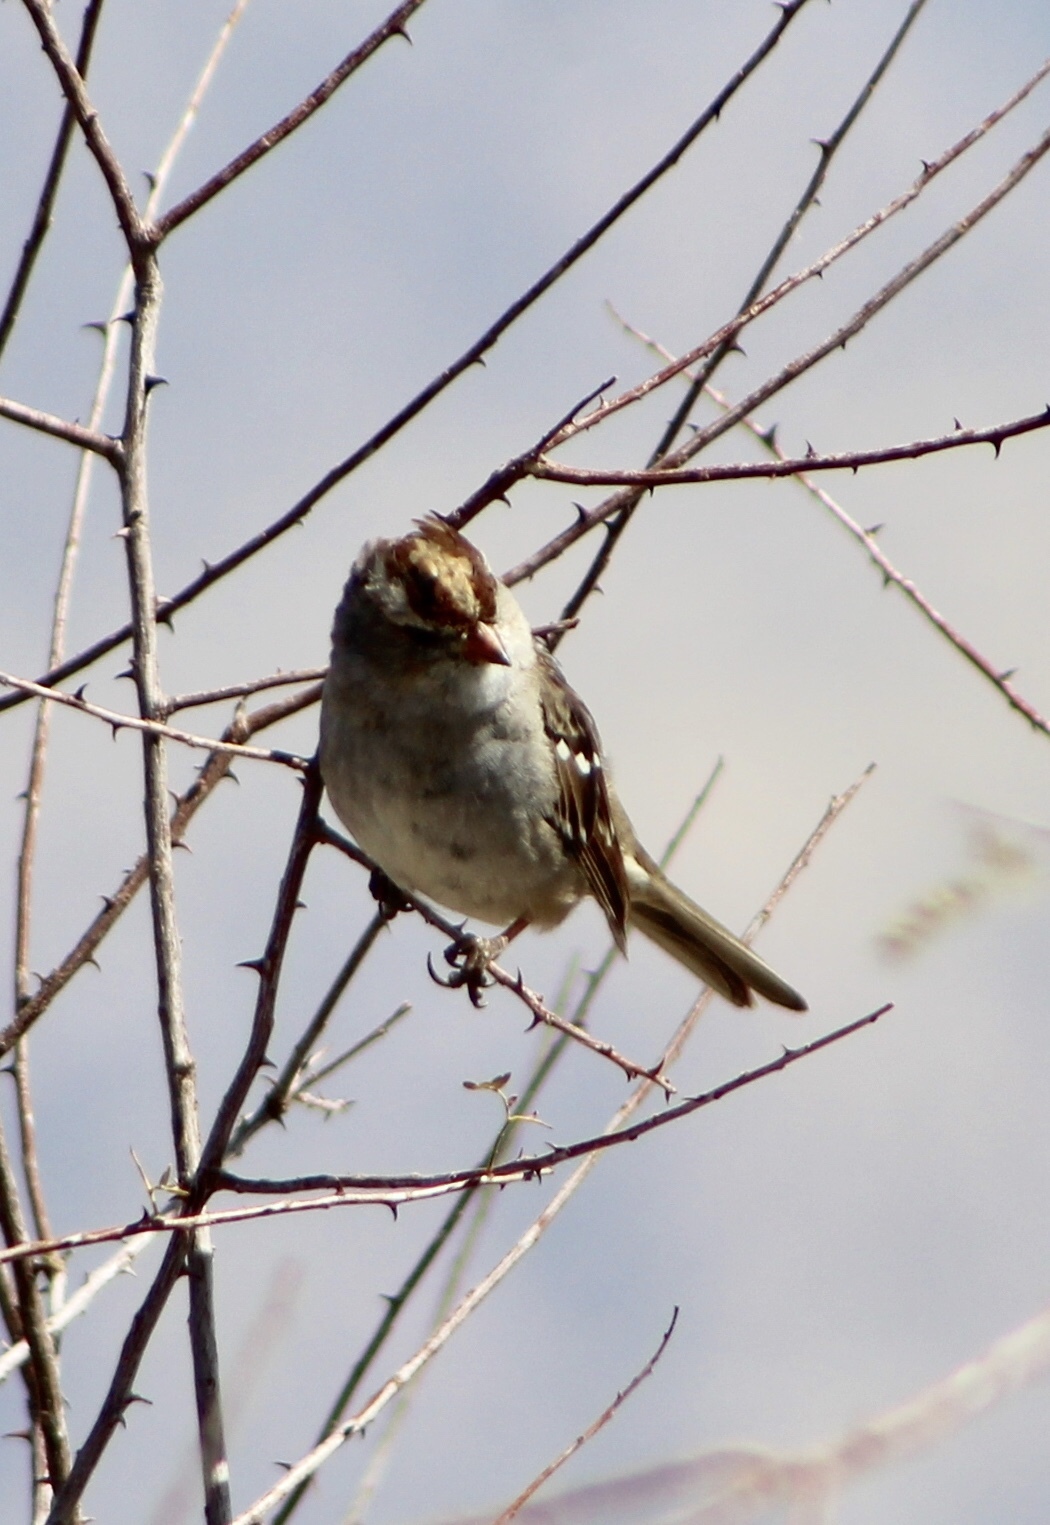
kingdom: Animalia
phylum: Chordata
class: Aves
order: Passeriformes
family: Passerellidae
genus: Zonotrichia
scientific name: Zonotrichia leucophrys
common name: White-crowned sparrow
